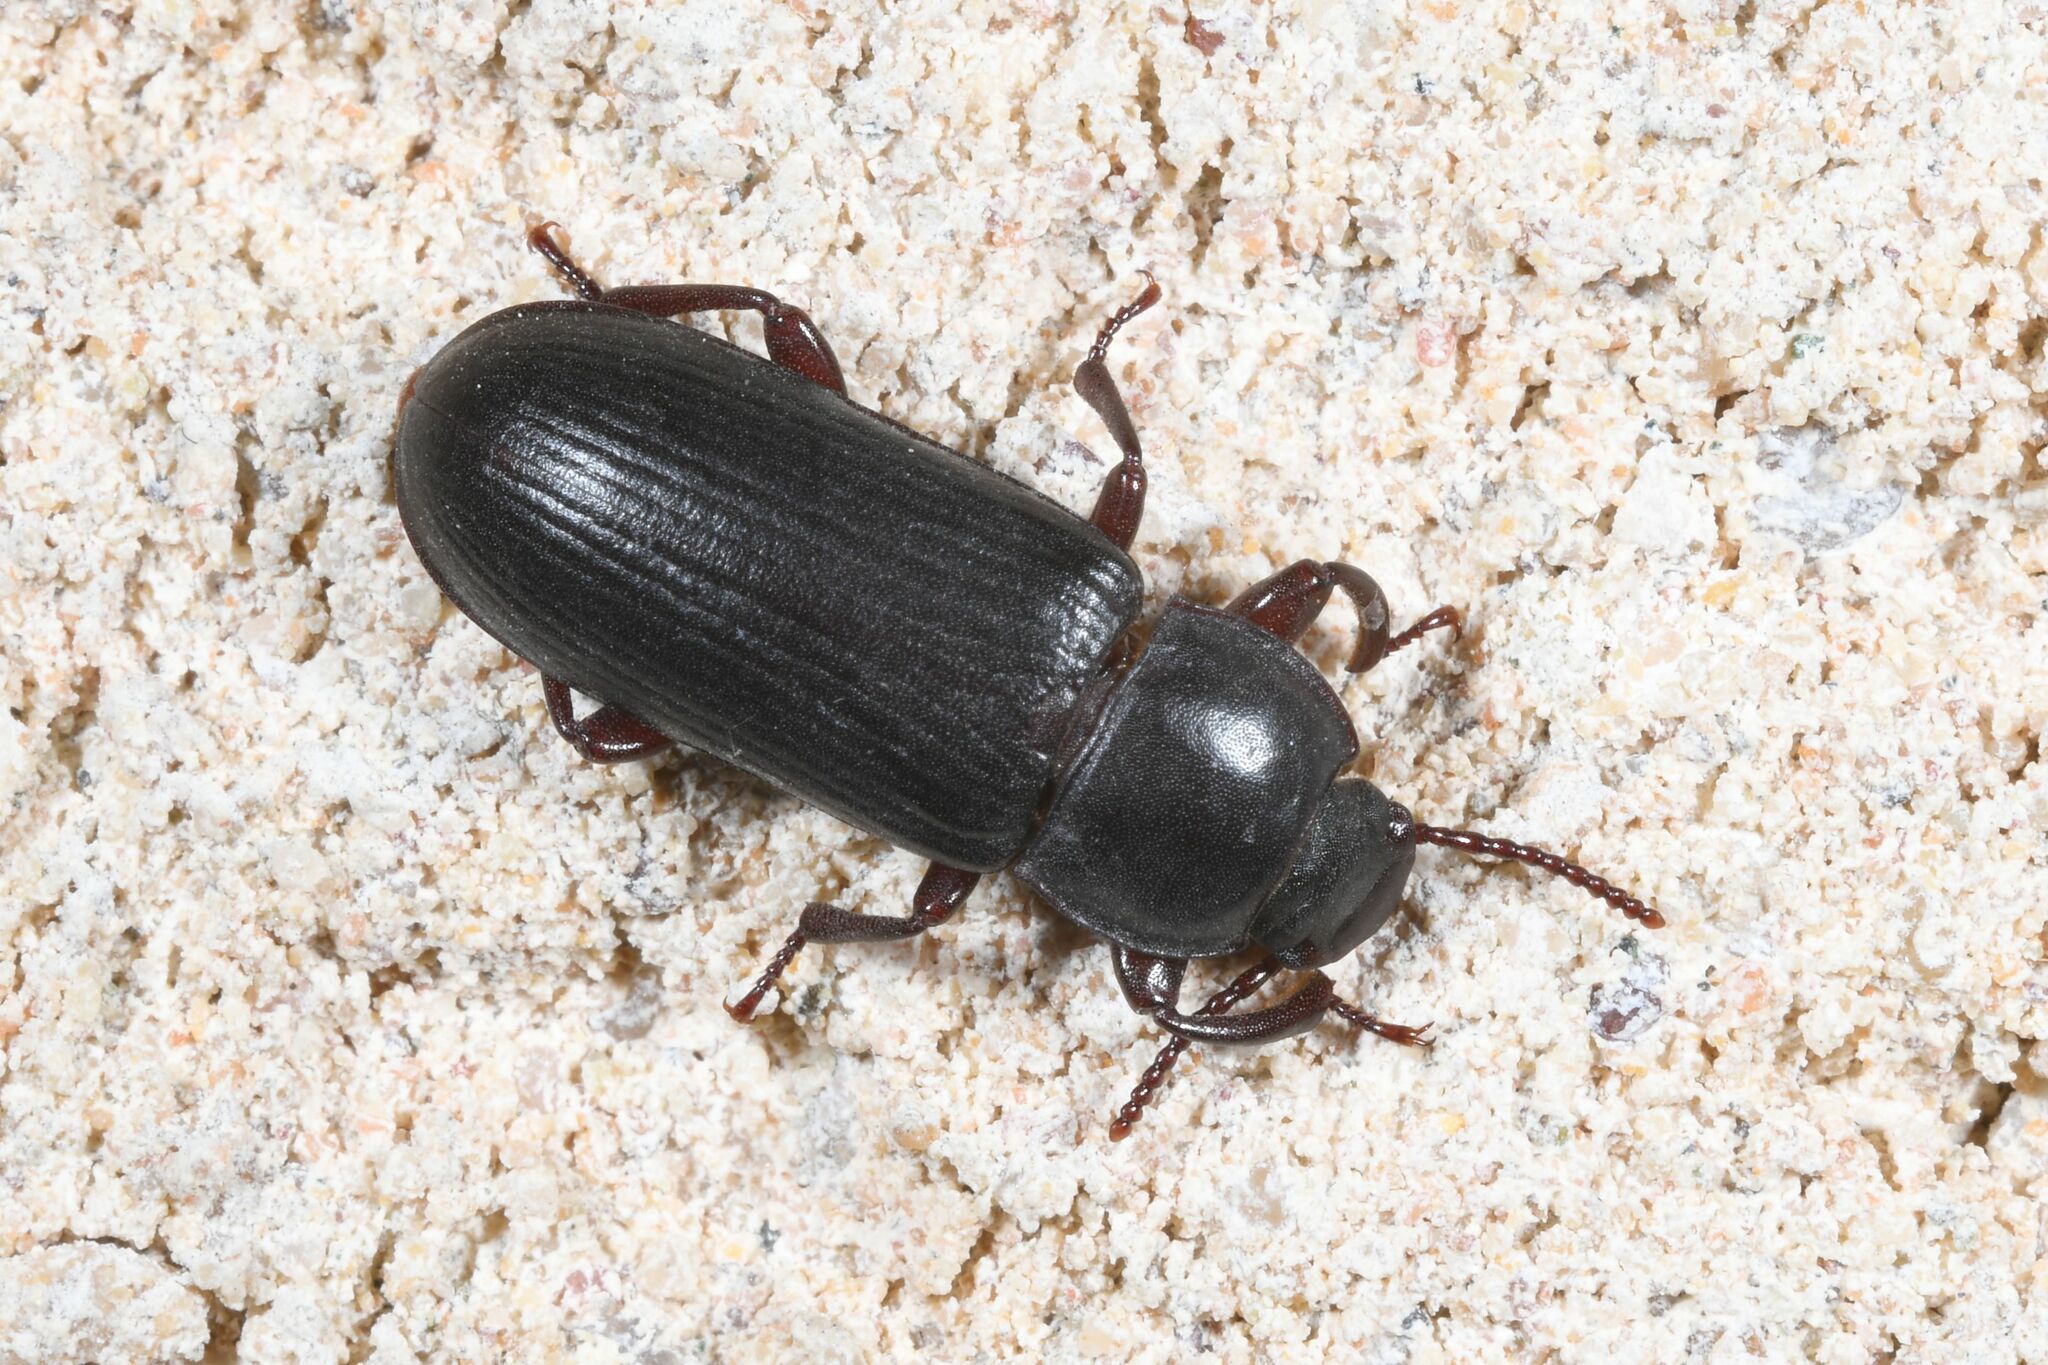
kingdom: Animalia
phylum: Arthropoda
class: Insecta
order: Coleoptera
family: Tenebrionidae
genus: Tenebrio
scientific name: Tenebrio molitor
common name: Hardback beetle
